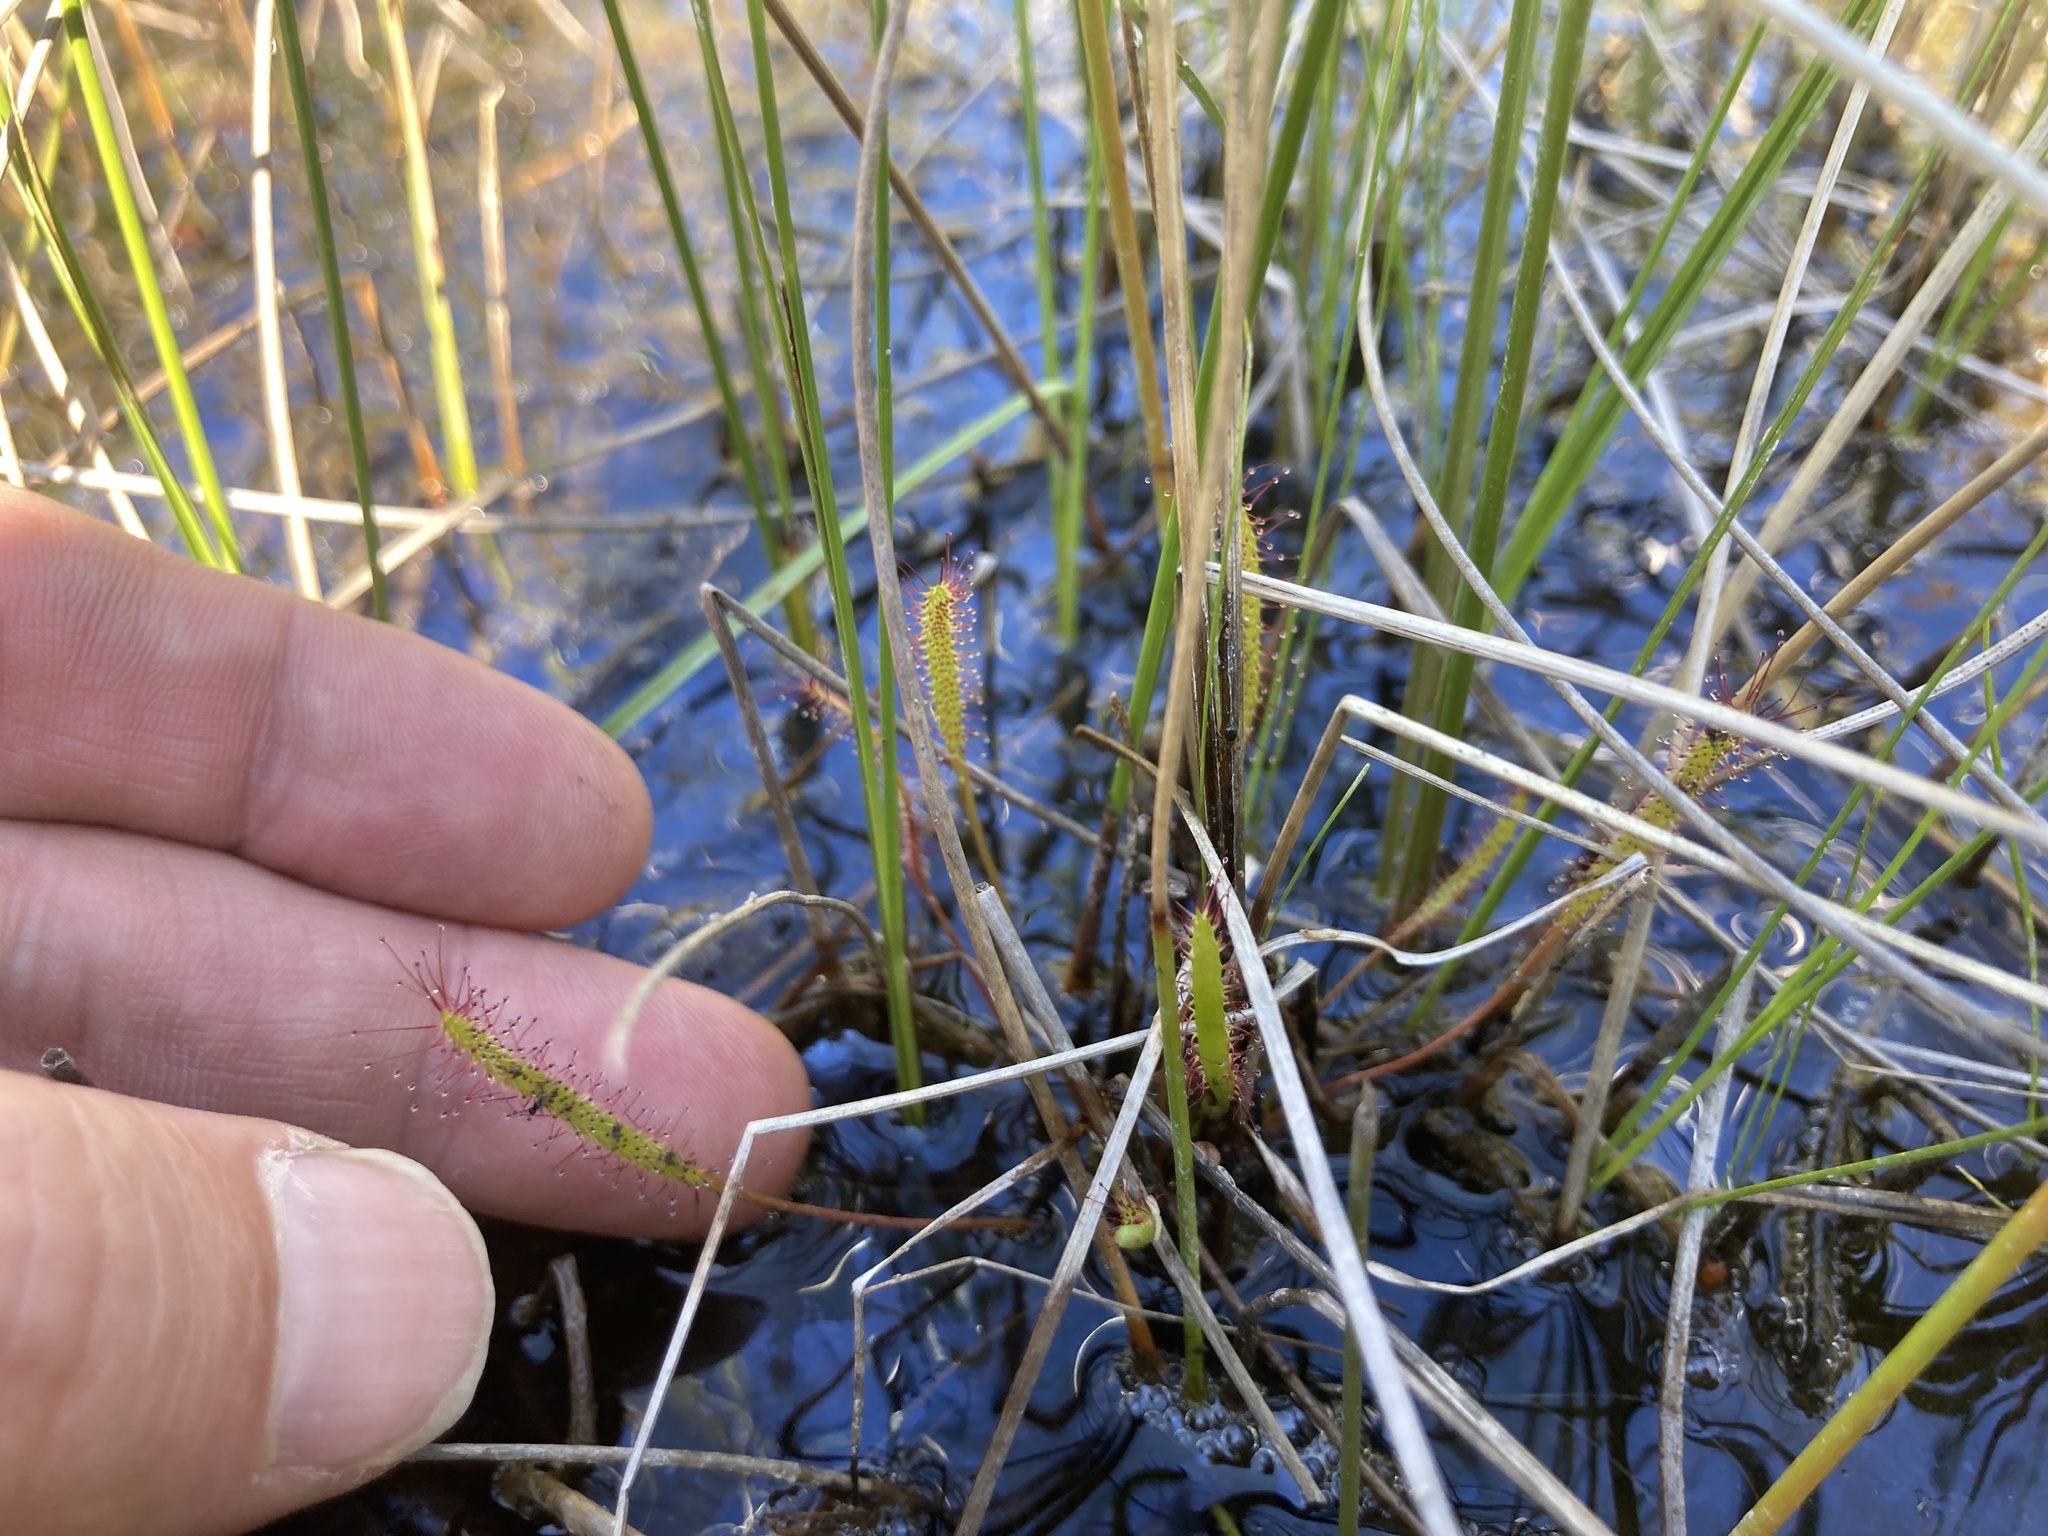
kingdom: Plantae
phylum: Tracheophyta
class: Magnoliopsida
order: Caryophyllales
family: Droseraceae
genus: Drosera
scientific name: Drosera linearis
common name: Linear-leaved sundew
